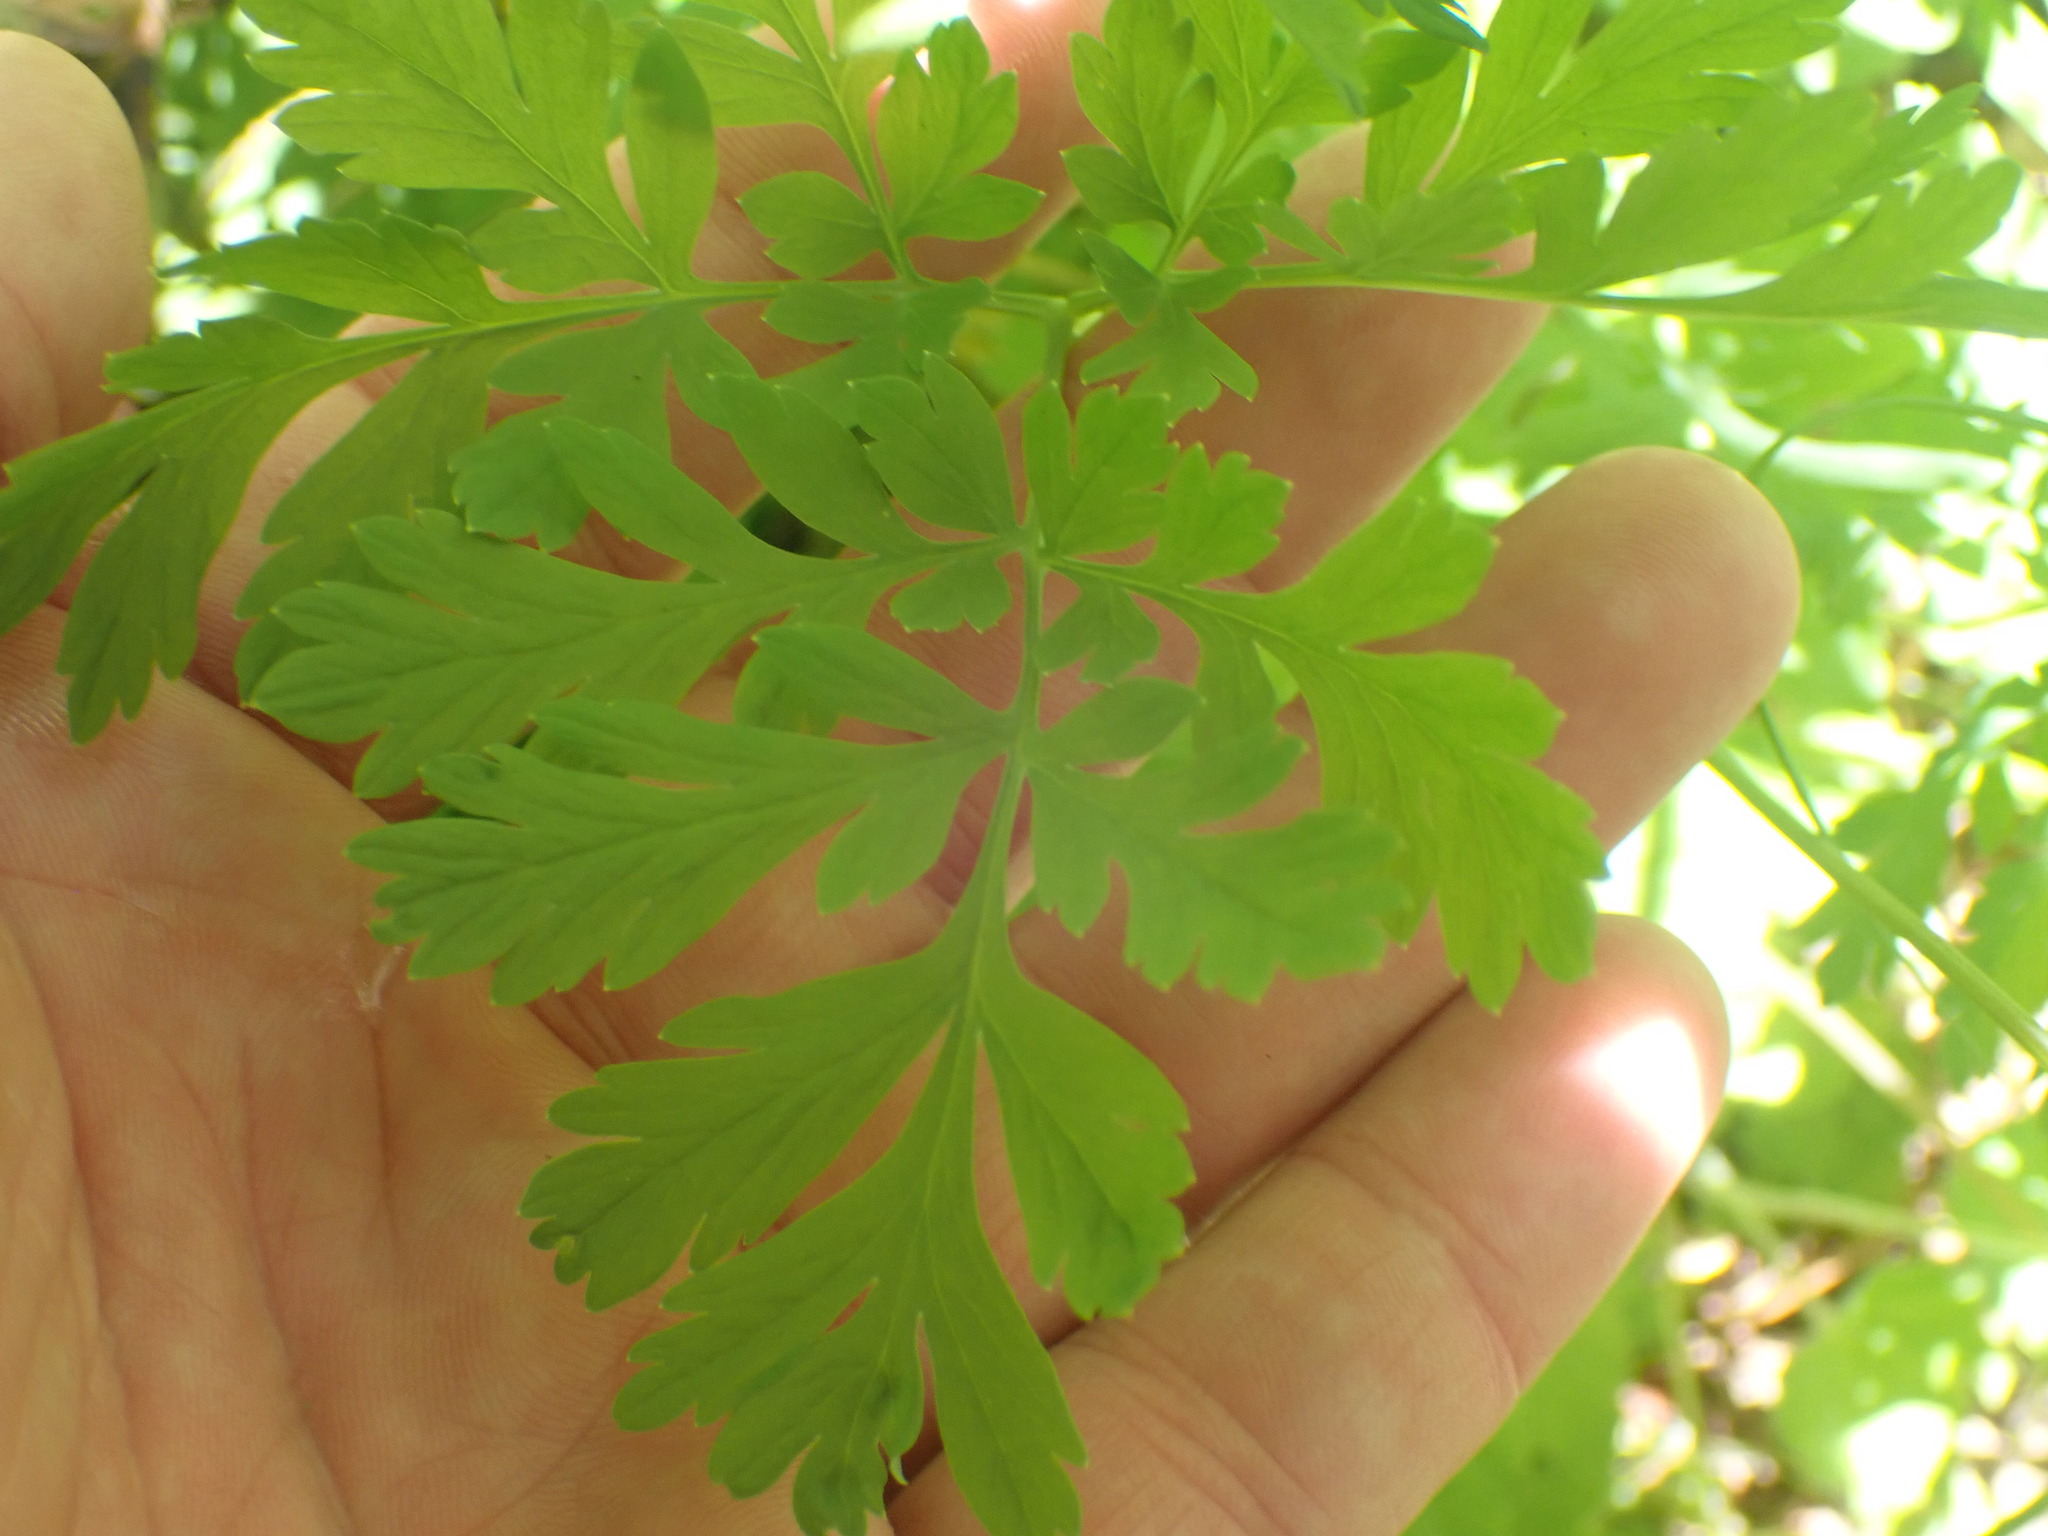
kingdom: Plantae
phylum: Tracheophyta
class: Magnoliopsida
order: Ranunculales
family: Papaveraceae
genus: Dicentra
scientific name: Dicentra formosa
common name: Bleeding-heart
